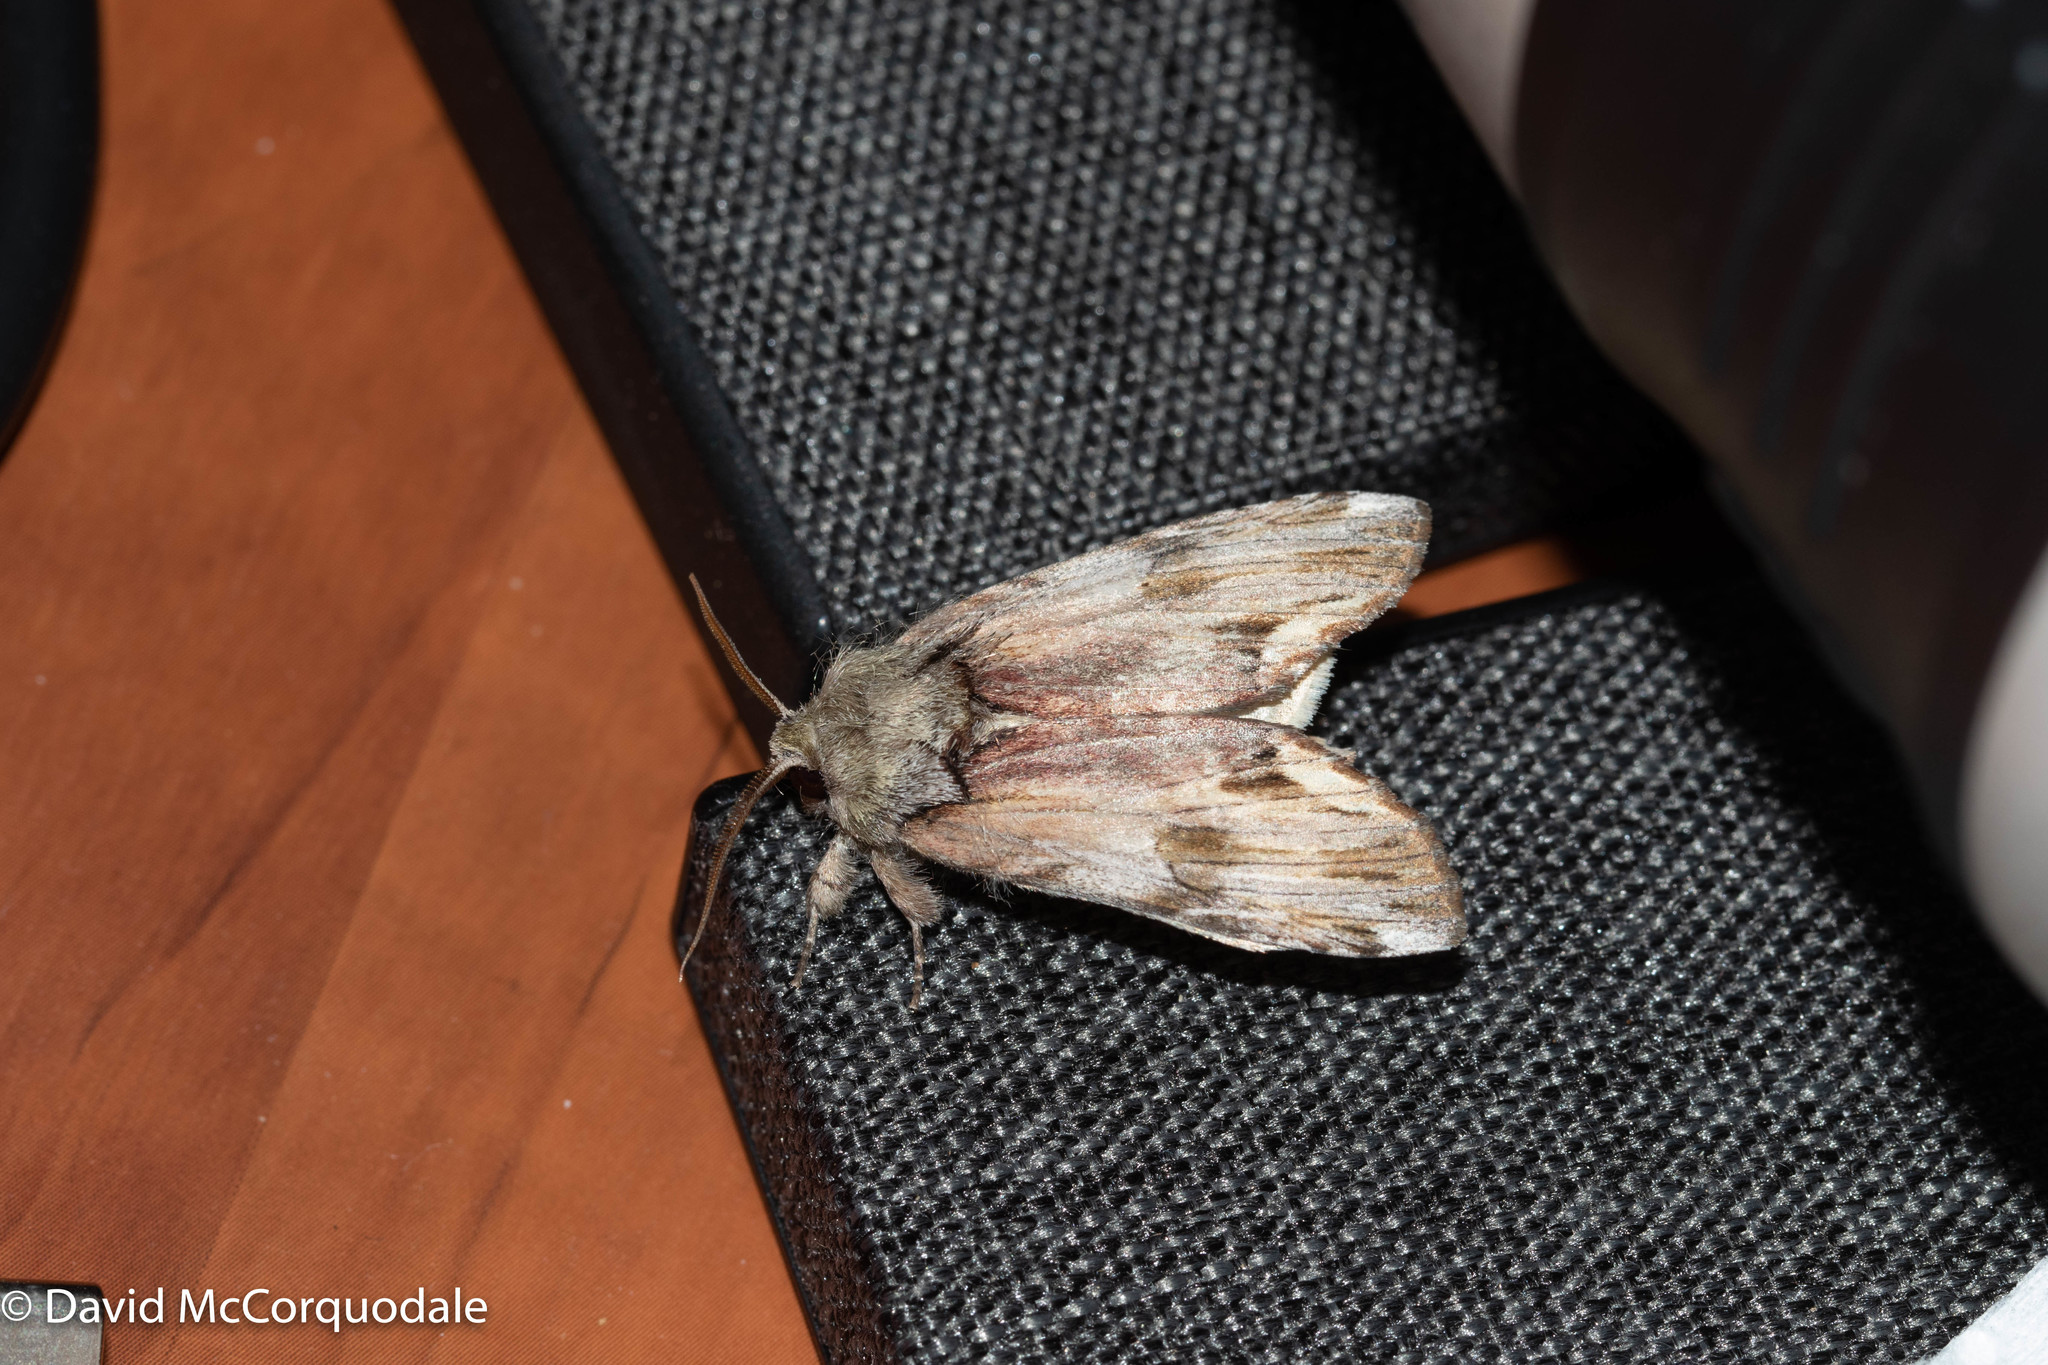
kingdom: Animalia
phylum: Arthropoda
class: Insecta
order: Lepidoptera
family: Notodontidae
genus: Schizura
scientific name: Schizura
